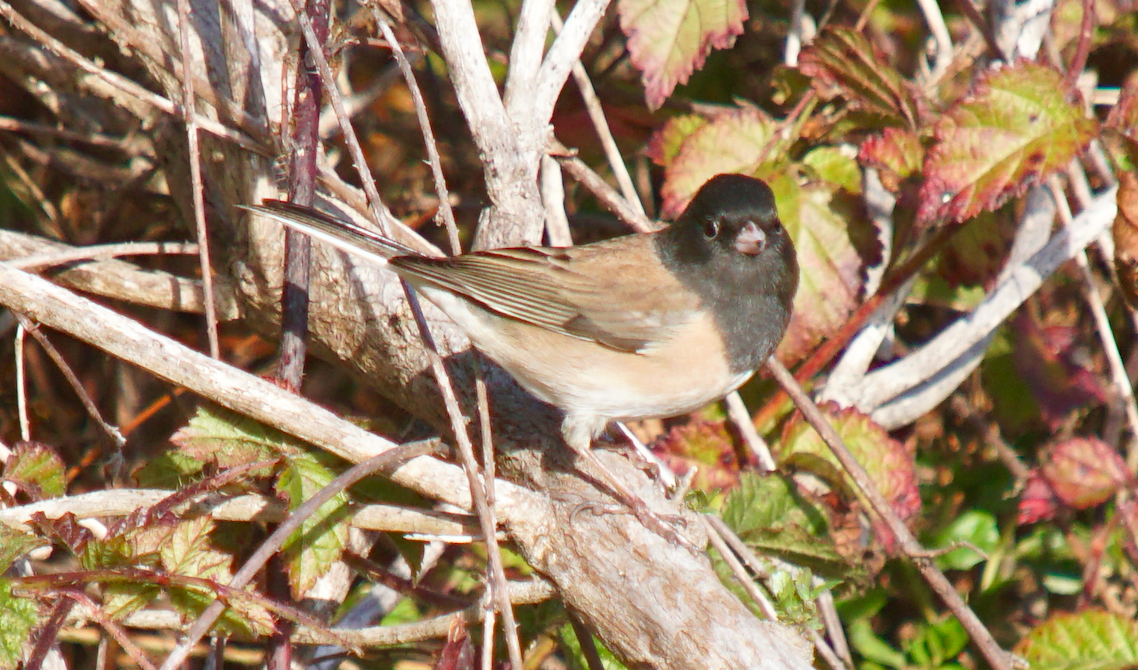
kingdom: Animalia
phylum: Chordata
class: Aves
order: Passeriformes
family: Passerellidae
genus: Junco
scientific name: Junco hyemalis
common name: Dark-eyed junco
